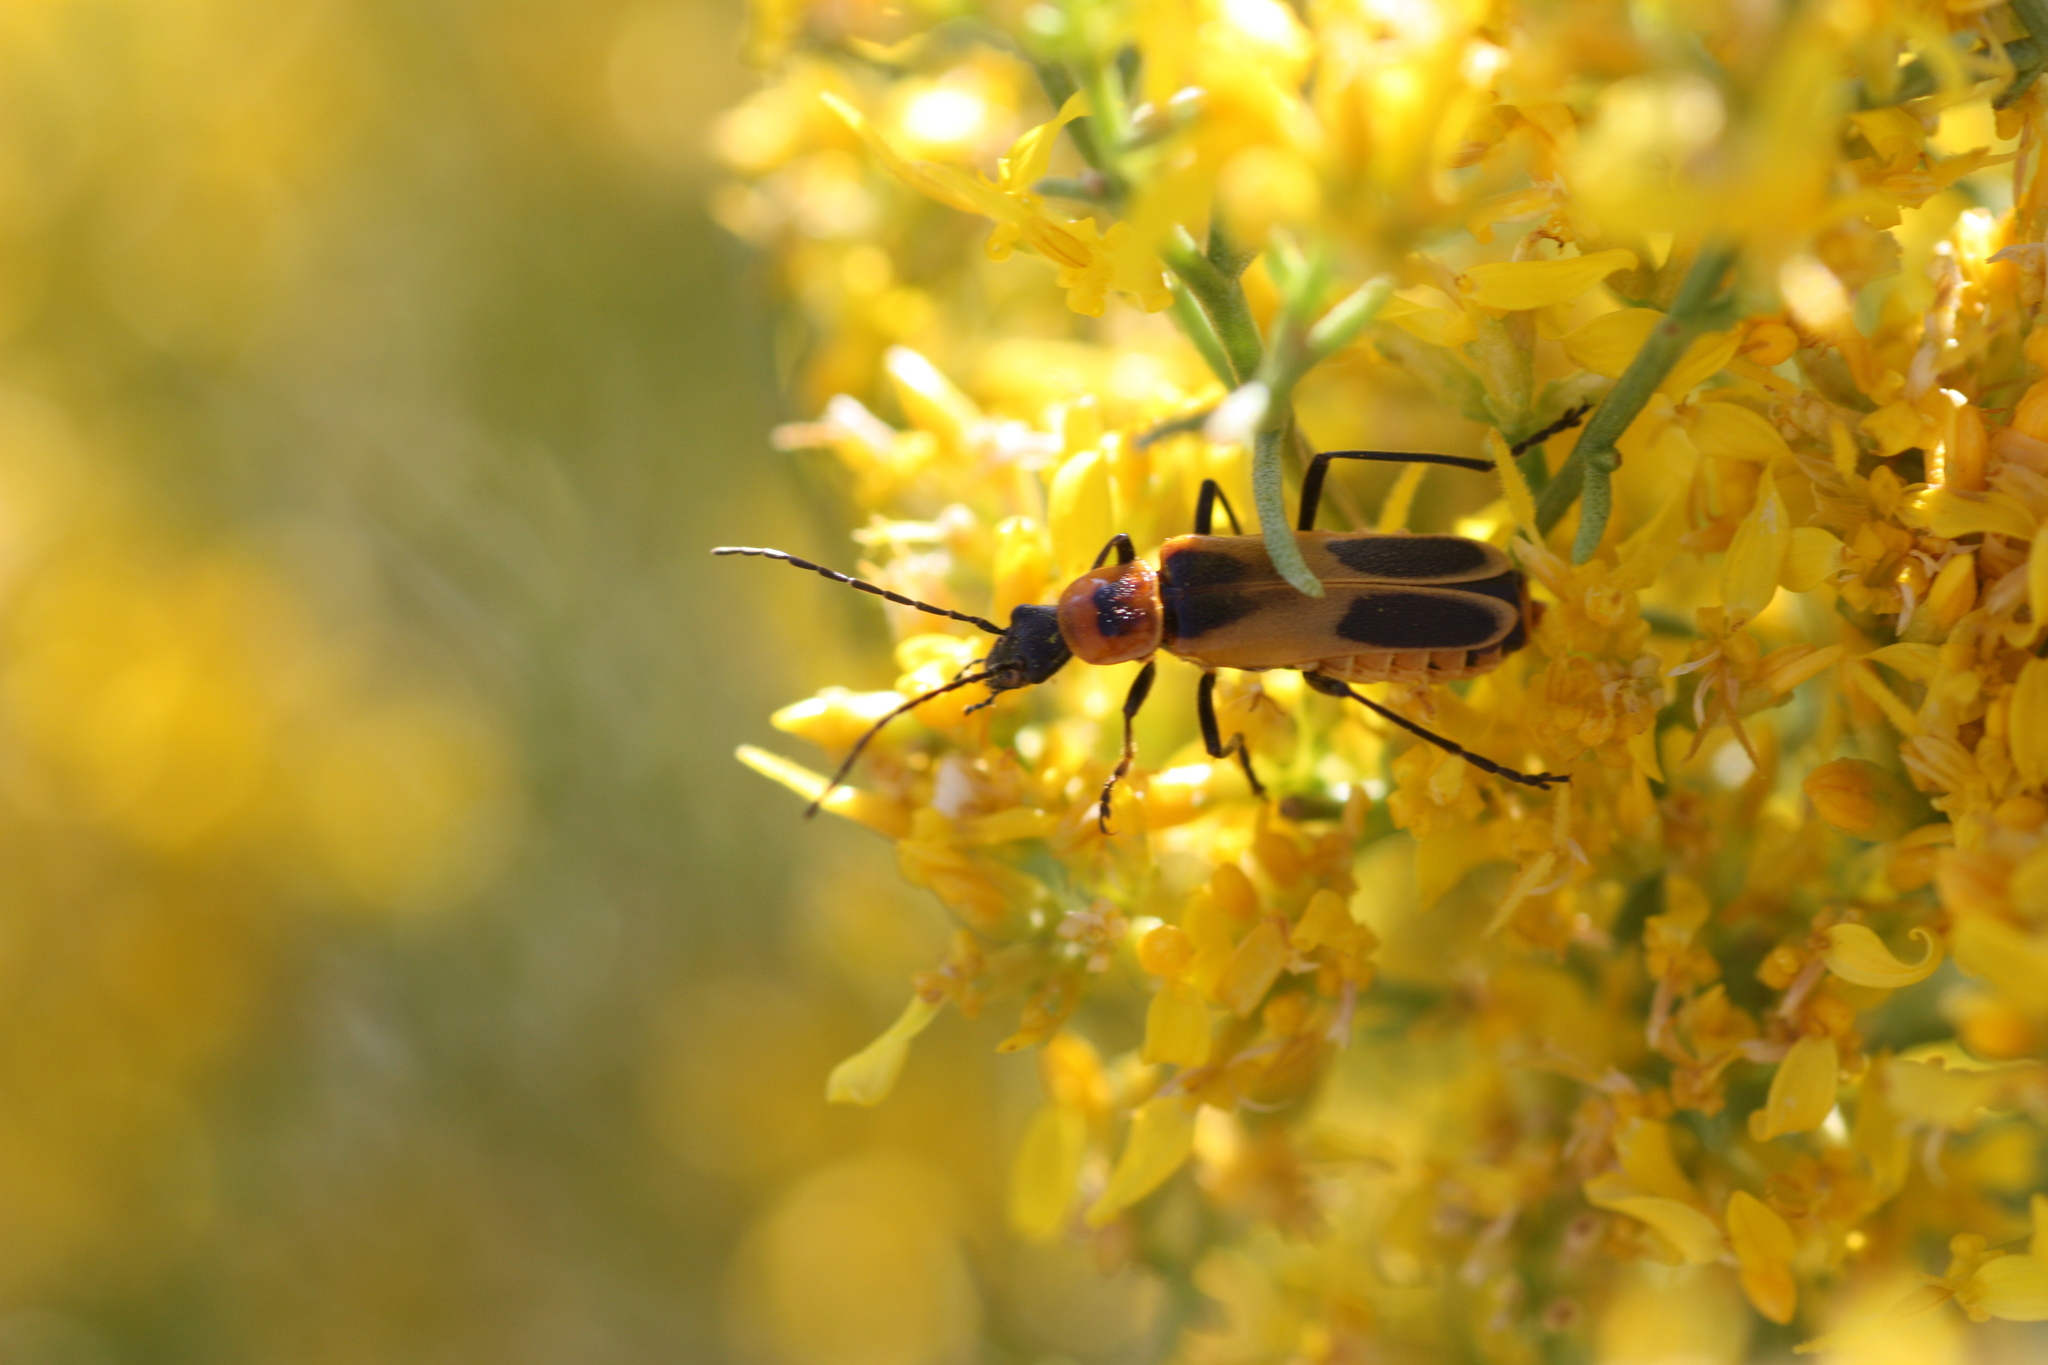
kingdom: Animalia
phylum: Arthropoda
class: Insecta
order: Coleoptera
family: Cantharidae
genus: Chauliognathus
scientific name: Chauliognathus omissus
